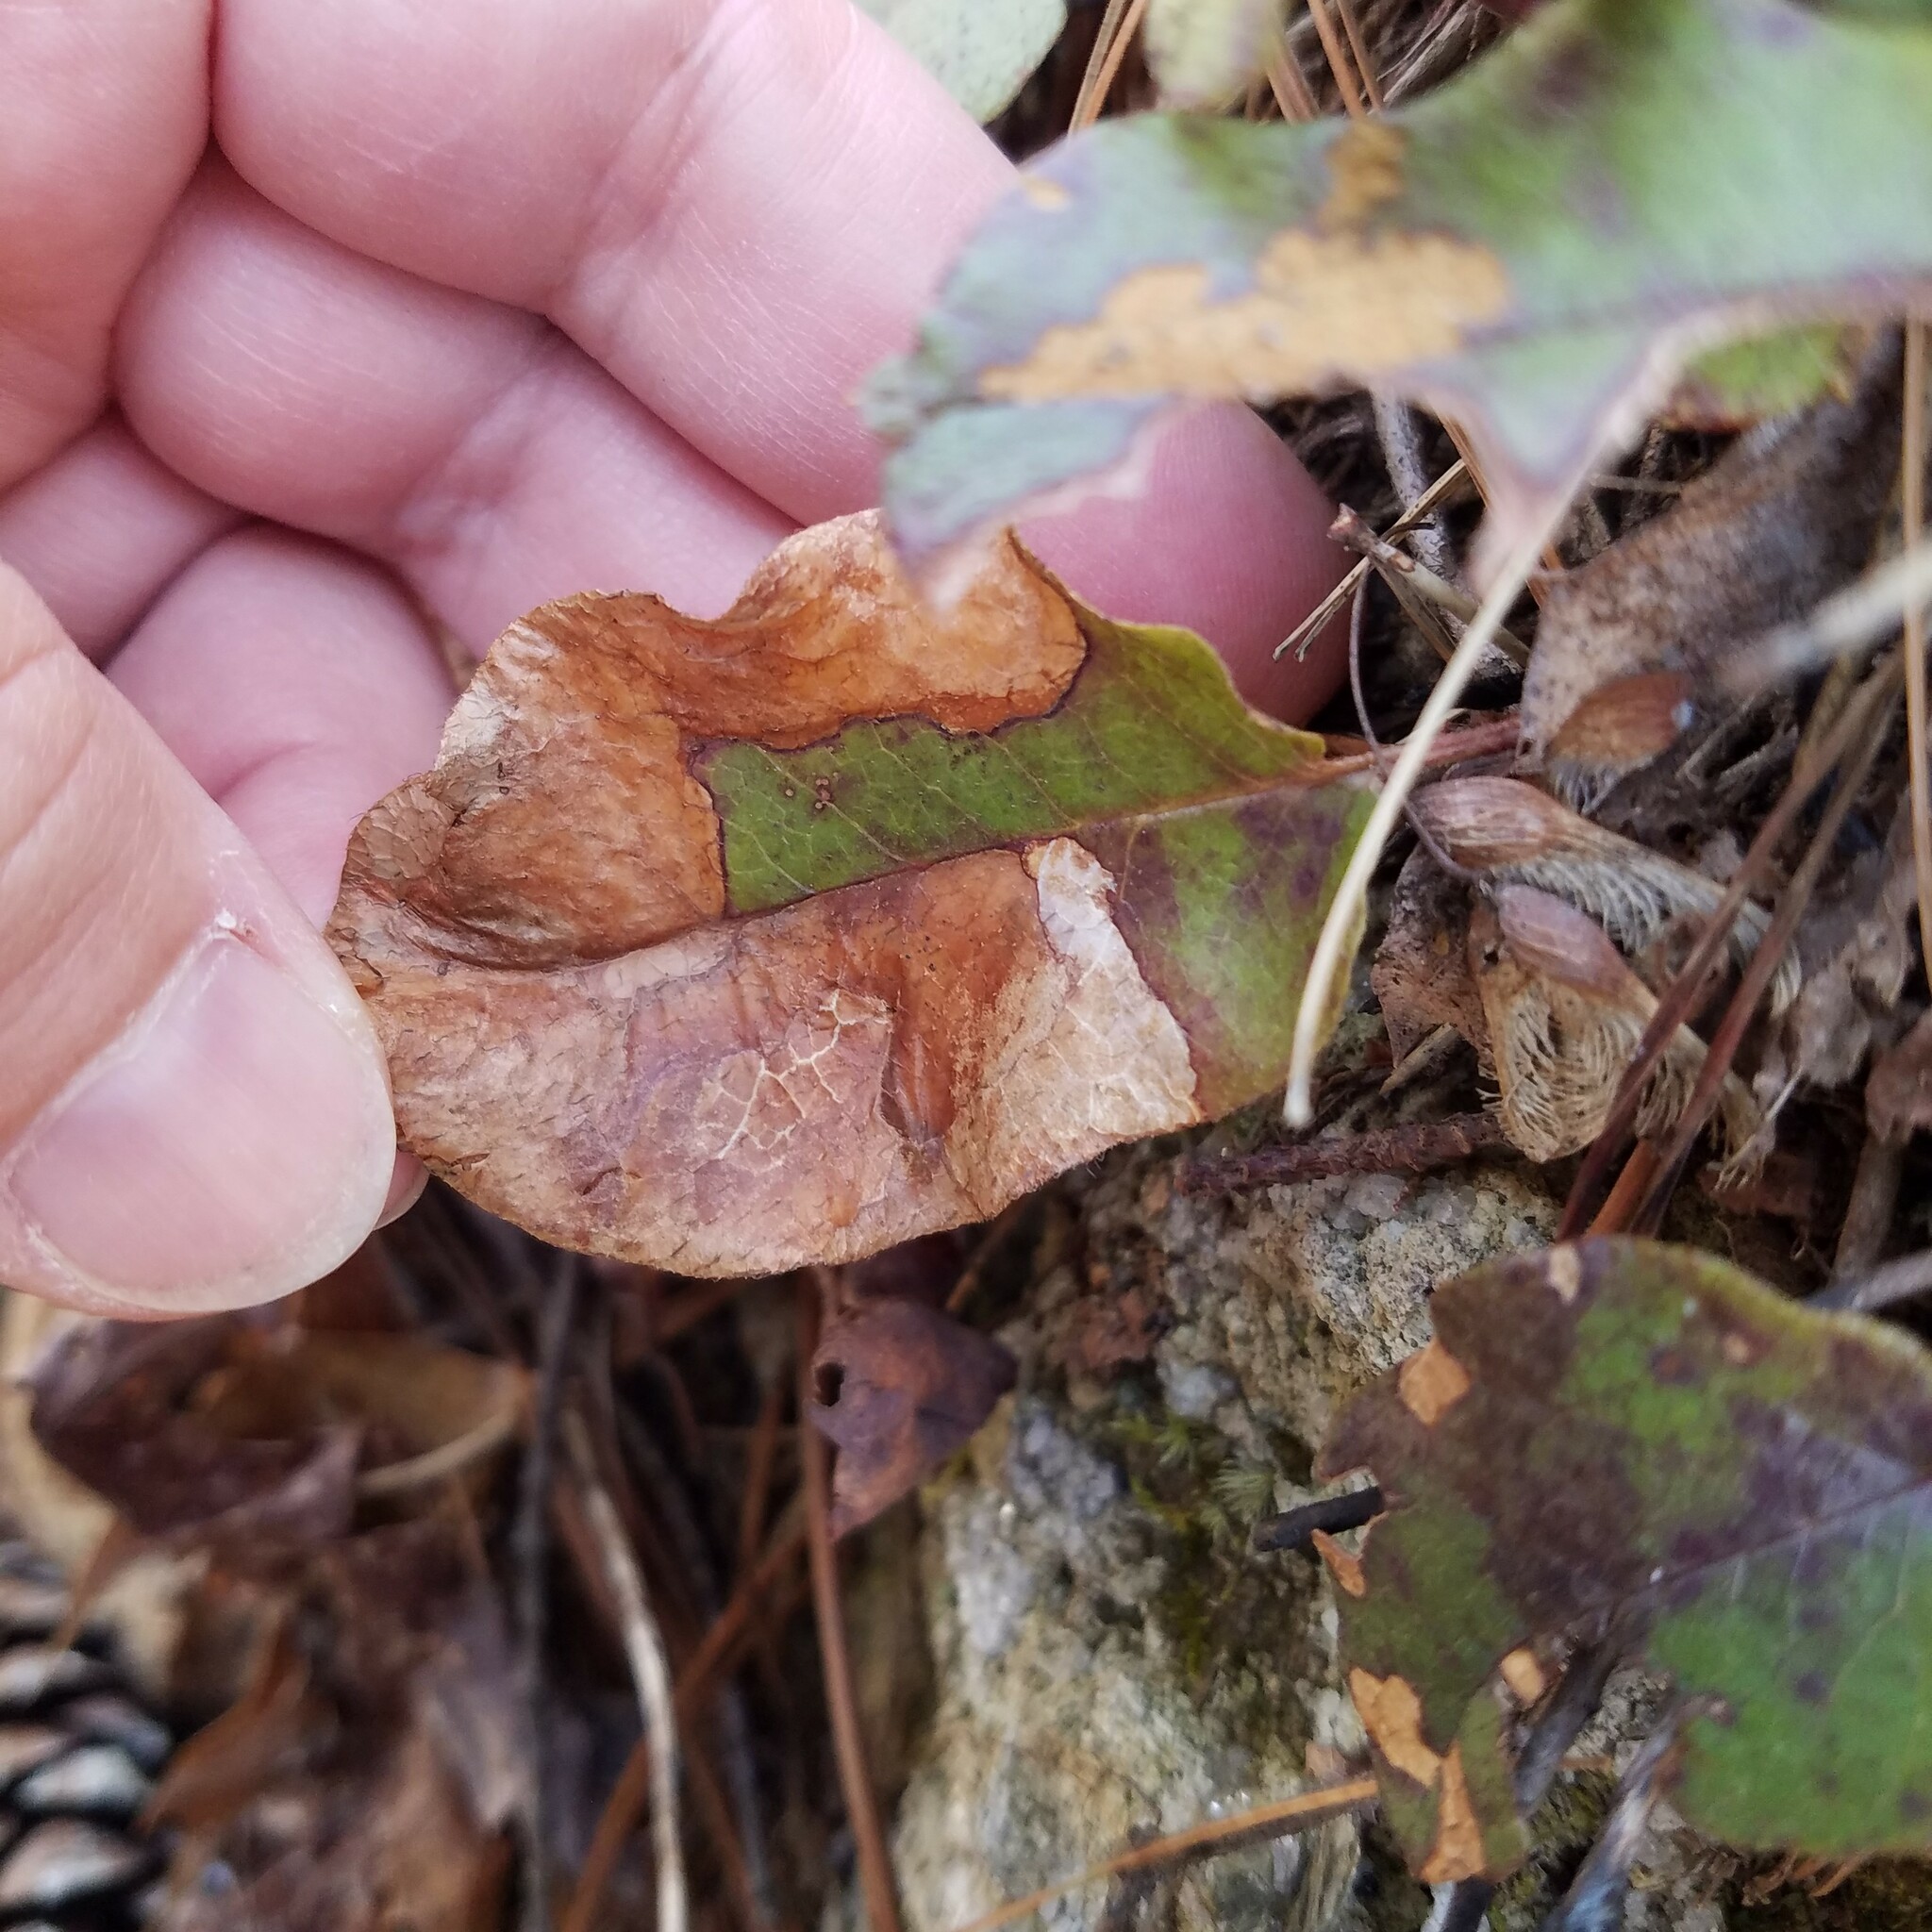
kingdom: Animalia
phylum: Arthropoda
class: Insecta
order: Coleoptera
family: Buprestidae
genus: Brachys
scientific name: Brachys
